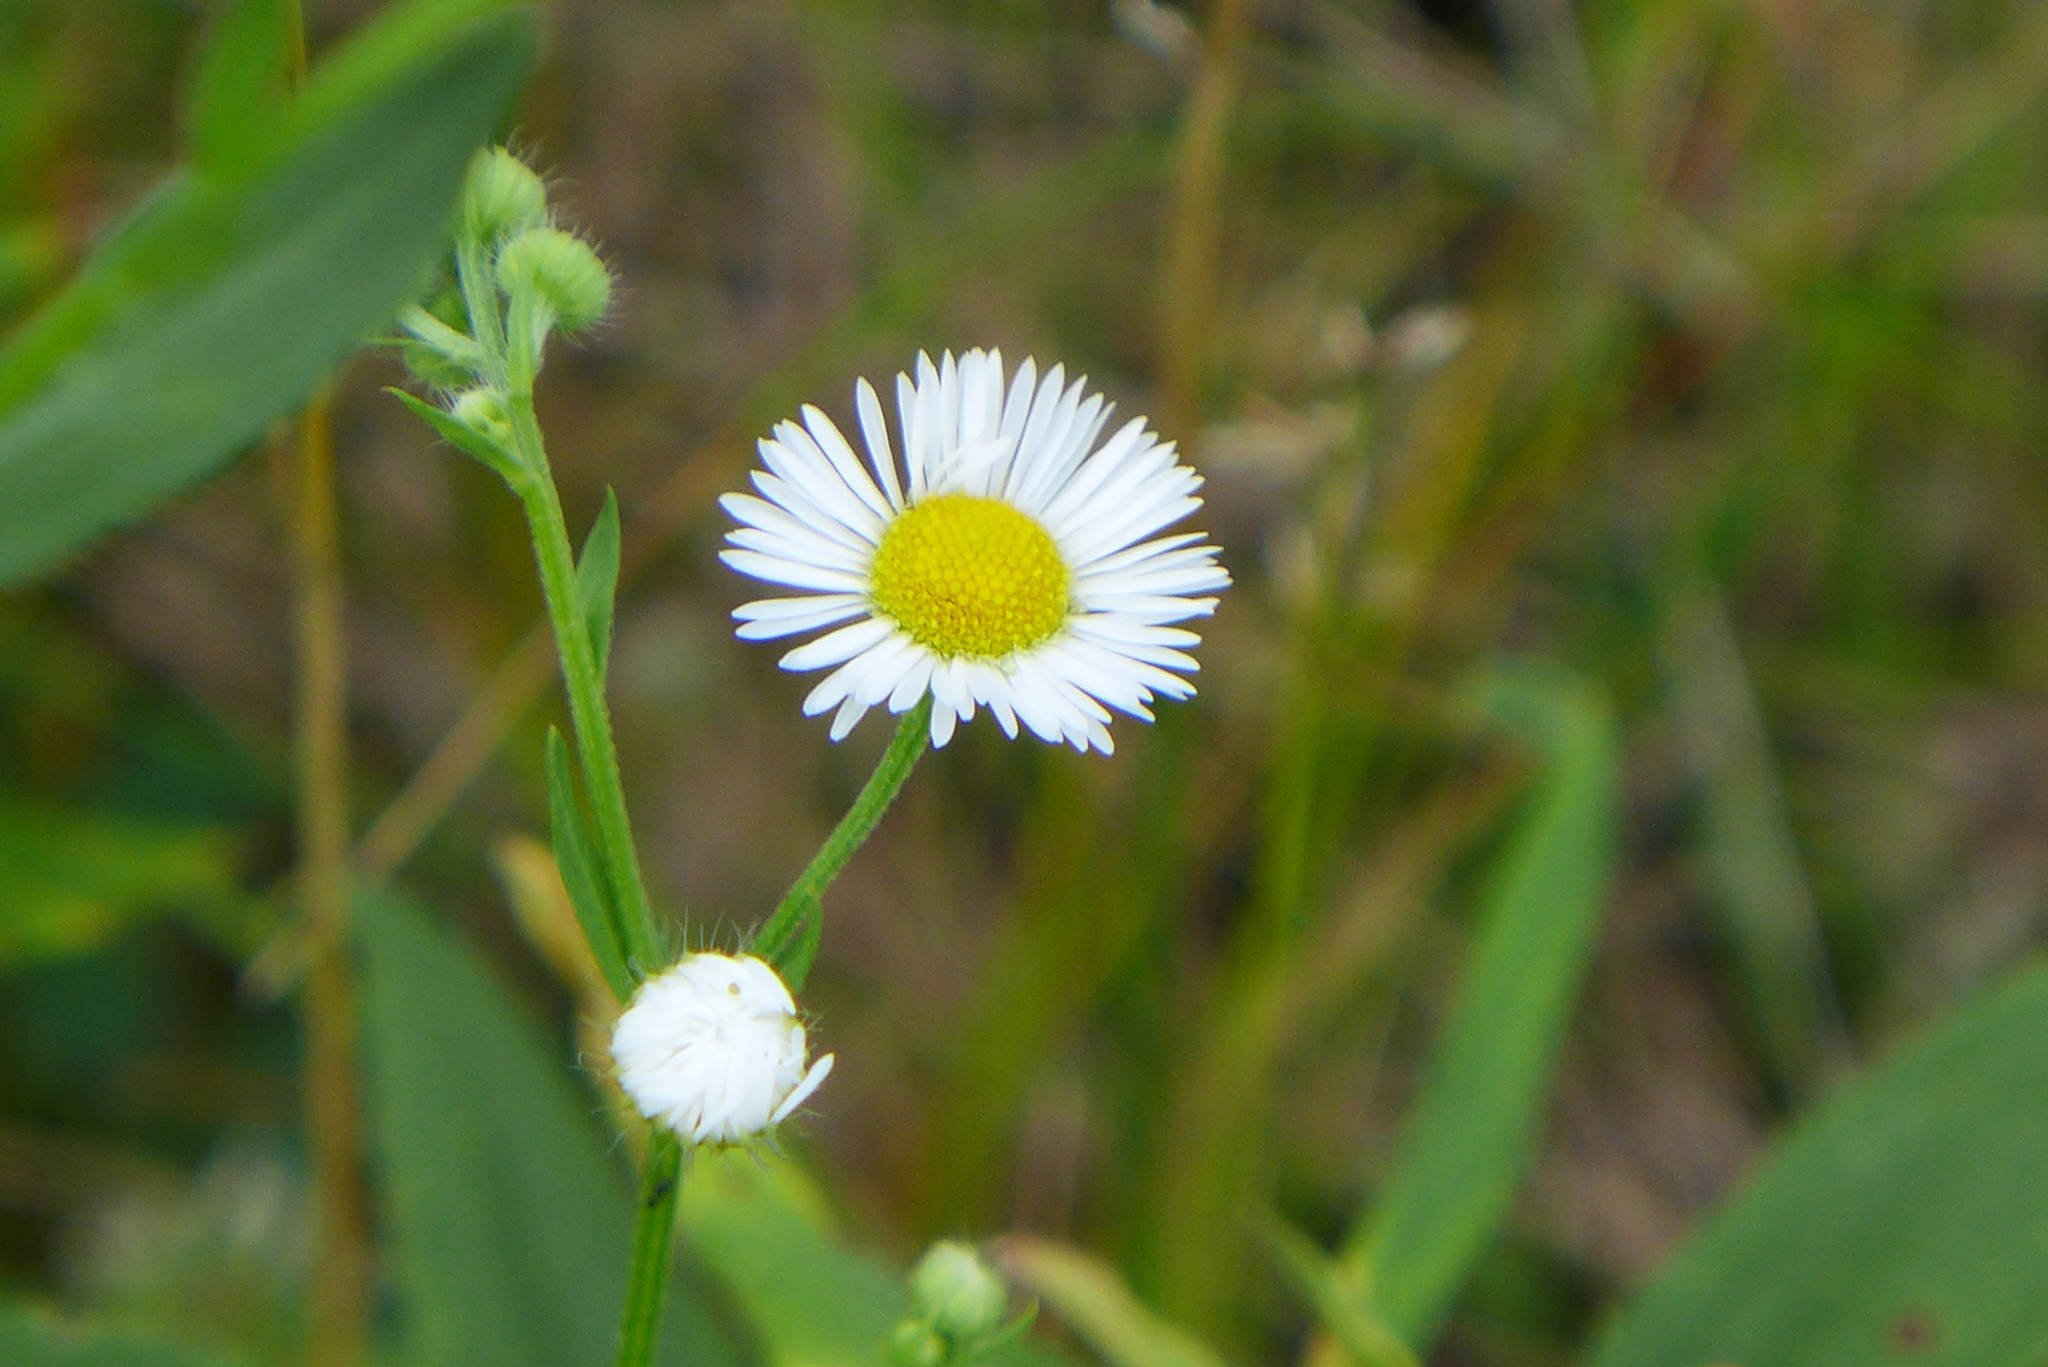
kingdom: Plantae
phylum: Tracheophyta
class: Magnoliopsida
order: Asterales
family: Asteraceae
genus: Erigeron
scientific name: Erigeron strigosus
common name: Common eastern fleabane
